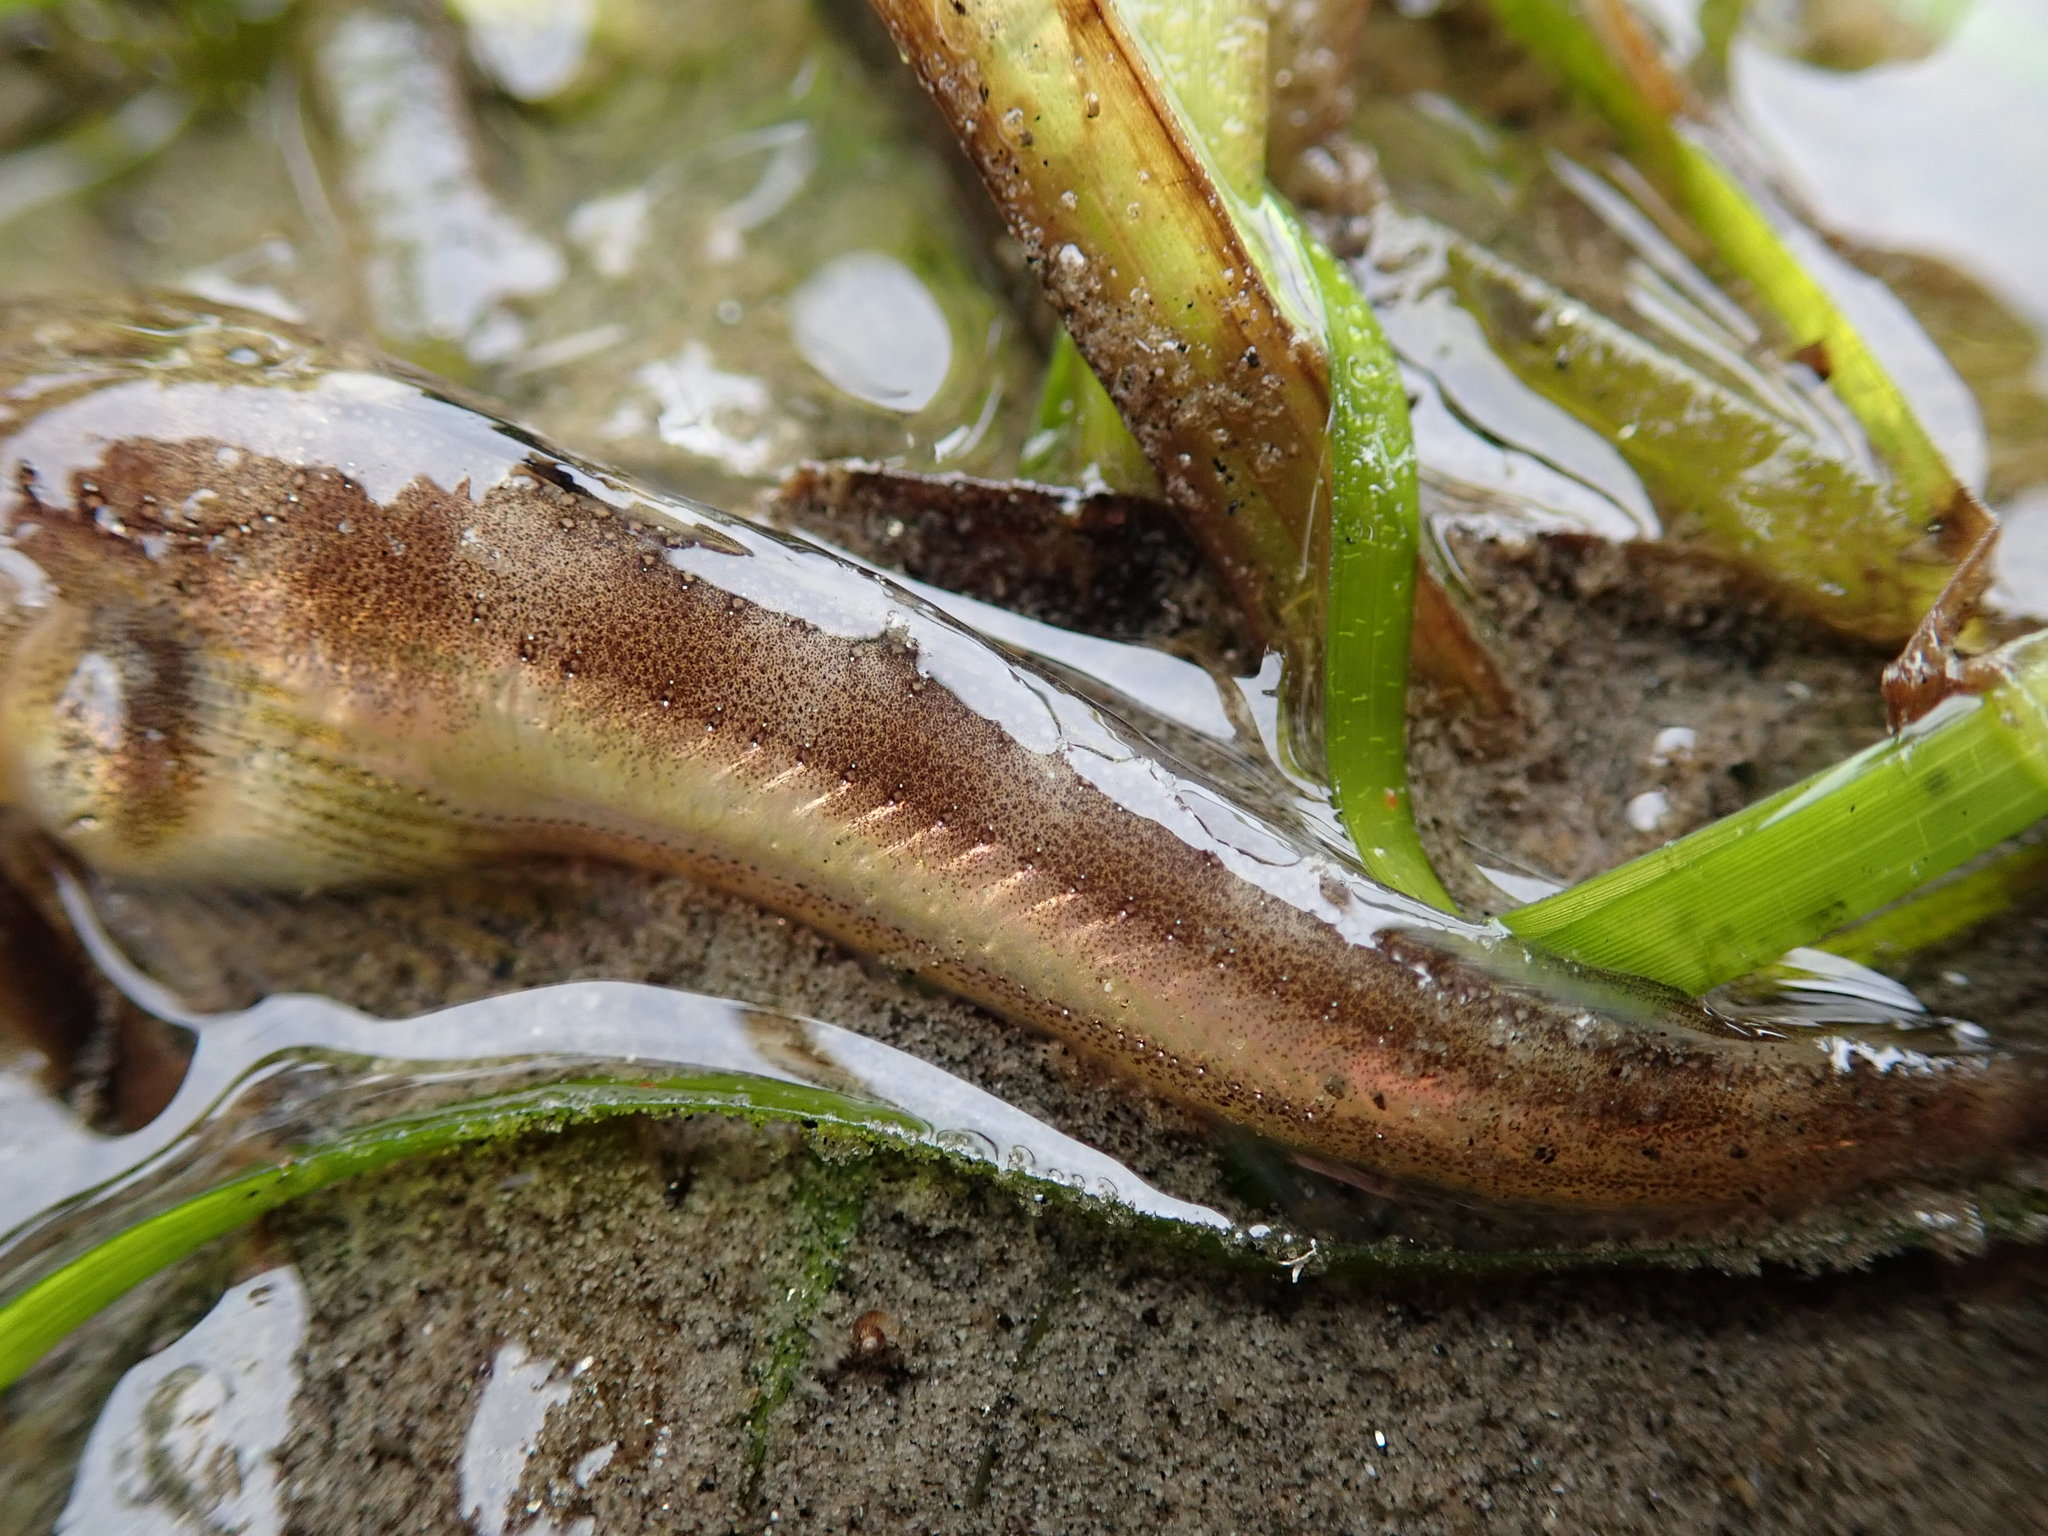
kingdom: Animalia
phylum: Chordata
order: Batrachoidiformes
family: Batrachoididae
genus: Porichthys
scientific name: Porichthys notatus
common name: Plainfin midshipman
